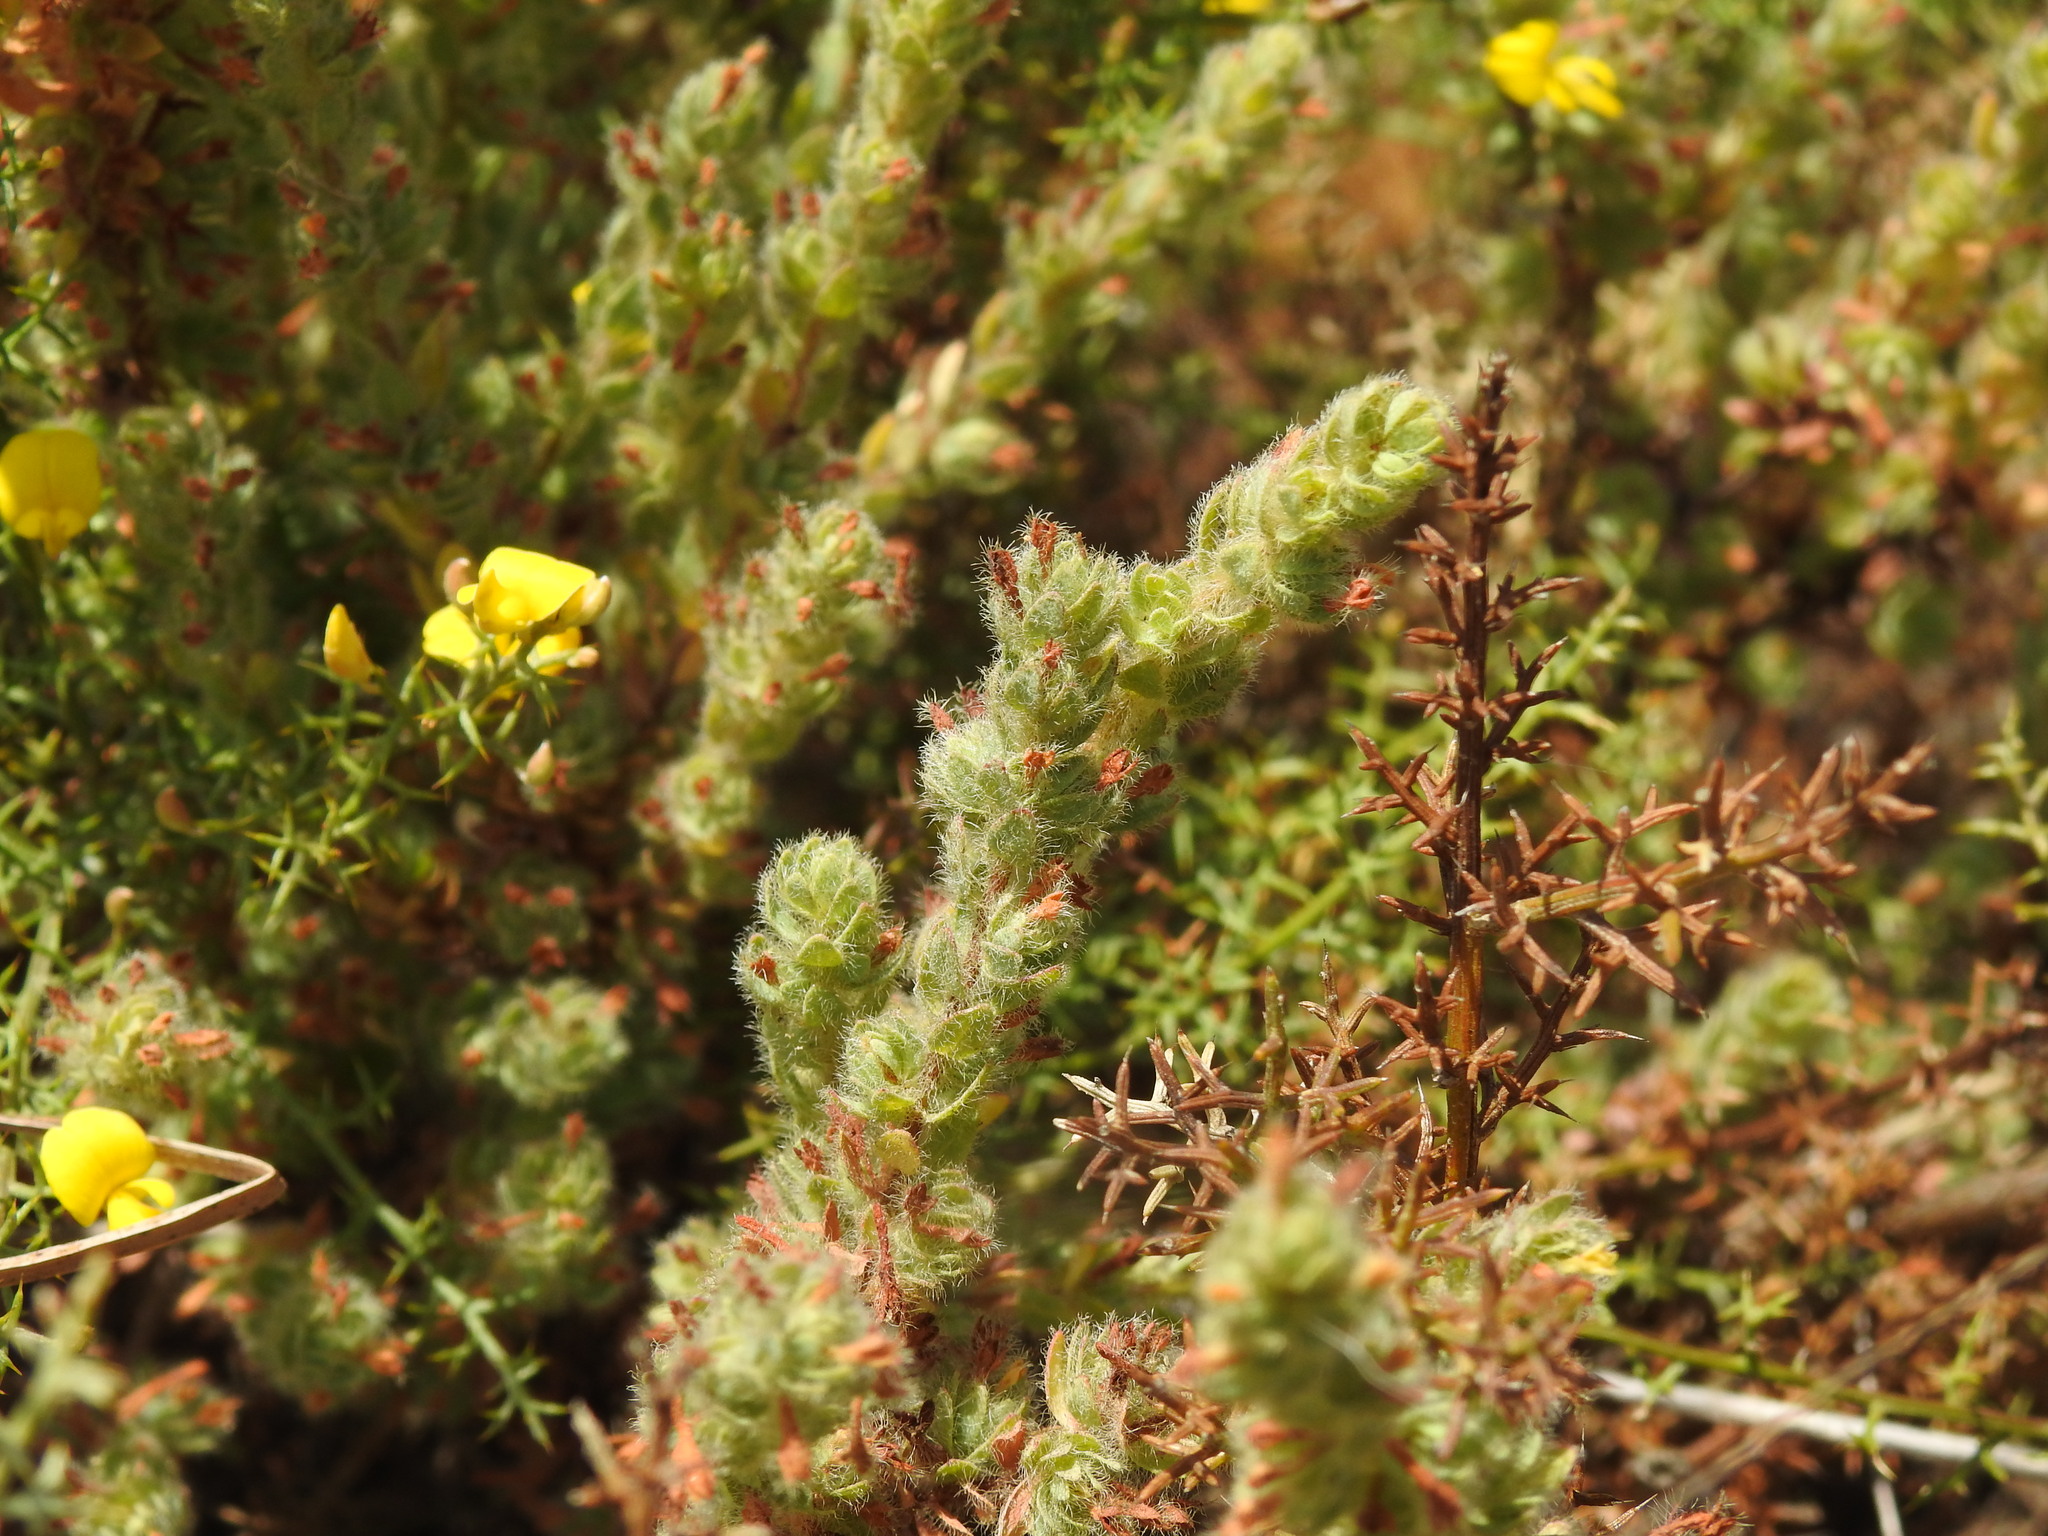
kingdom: Plantae
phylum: Tracheophyta
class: Magnoliopsida
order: Malvales
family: Thymelaeaceae
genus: Thymelaea
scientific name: Thymelaea villosa
